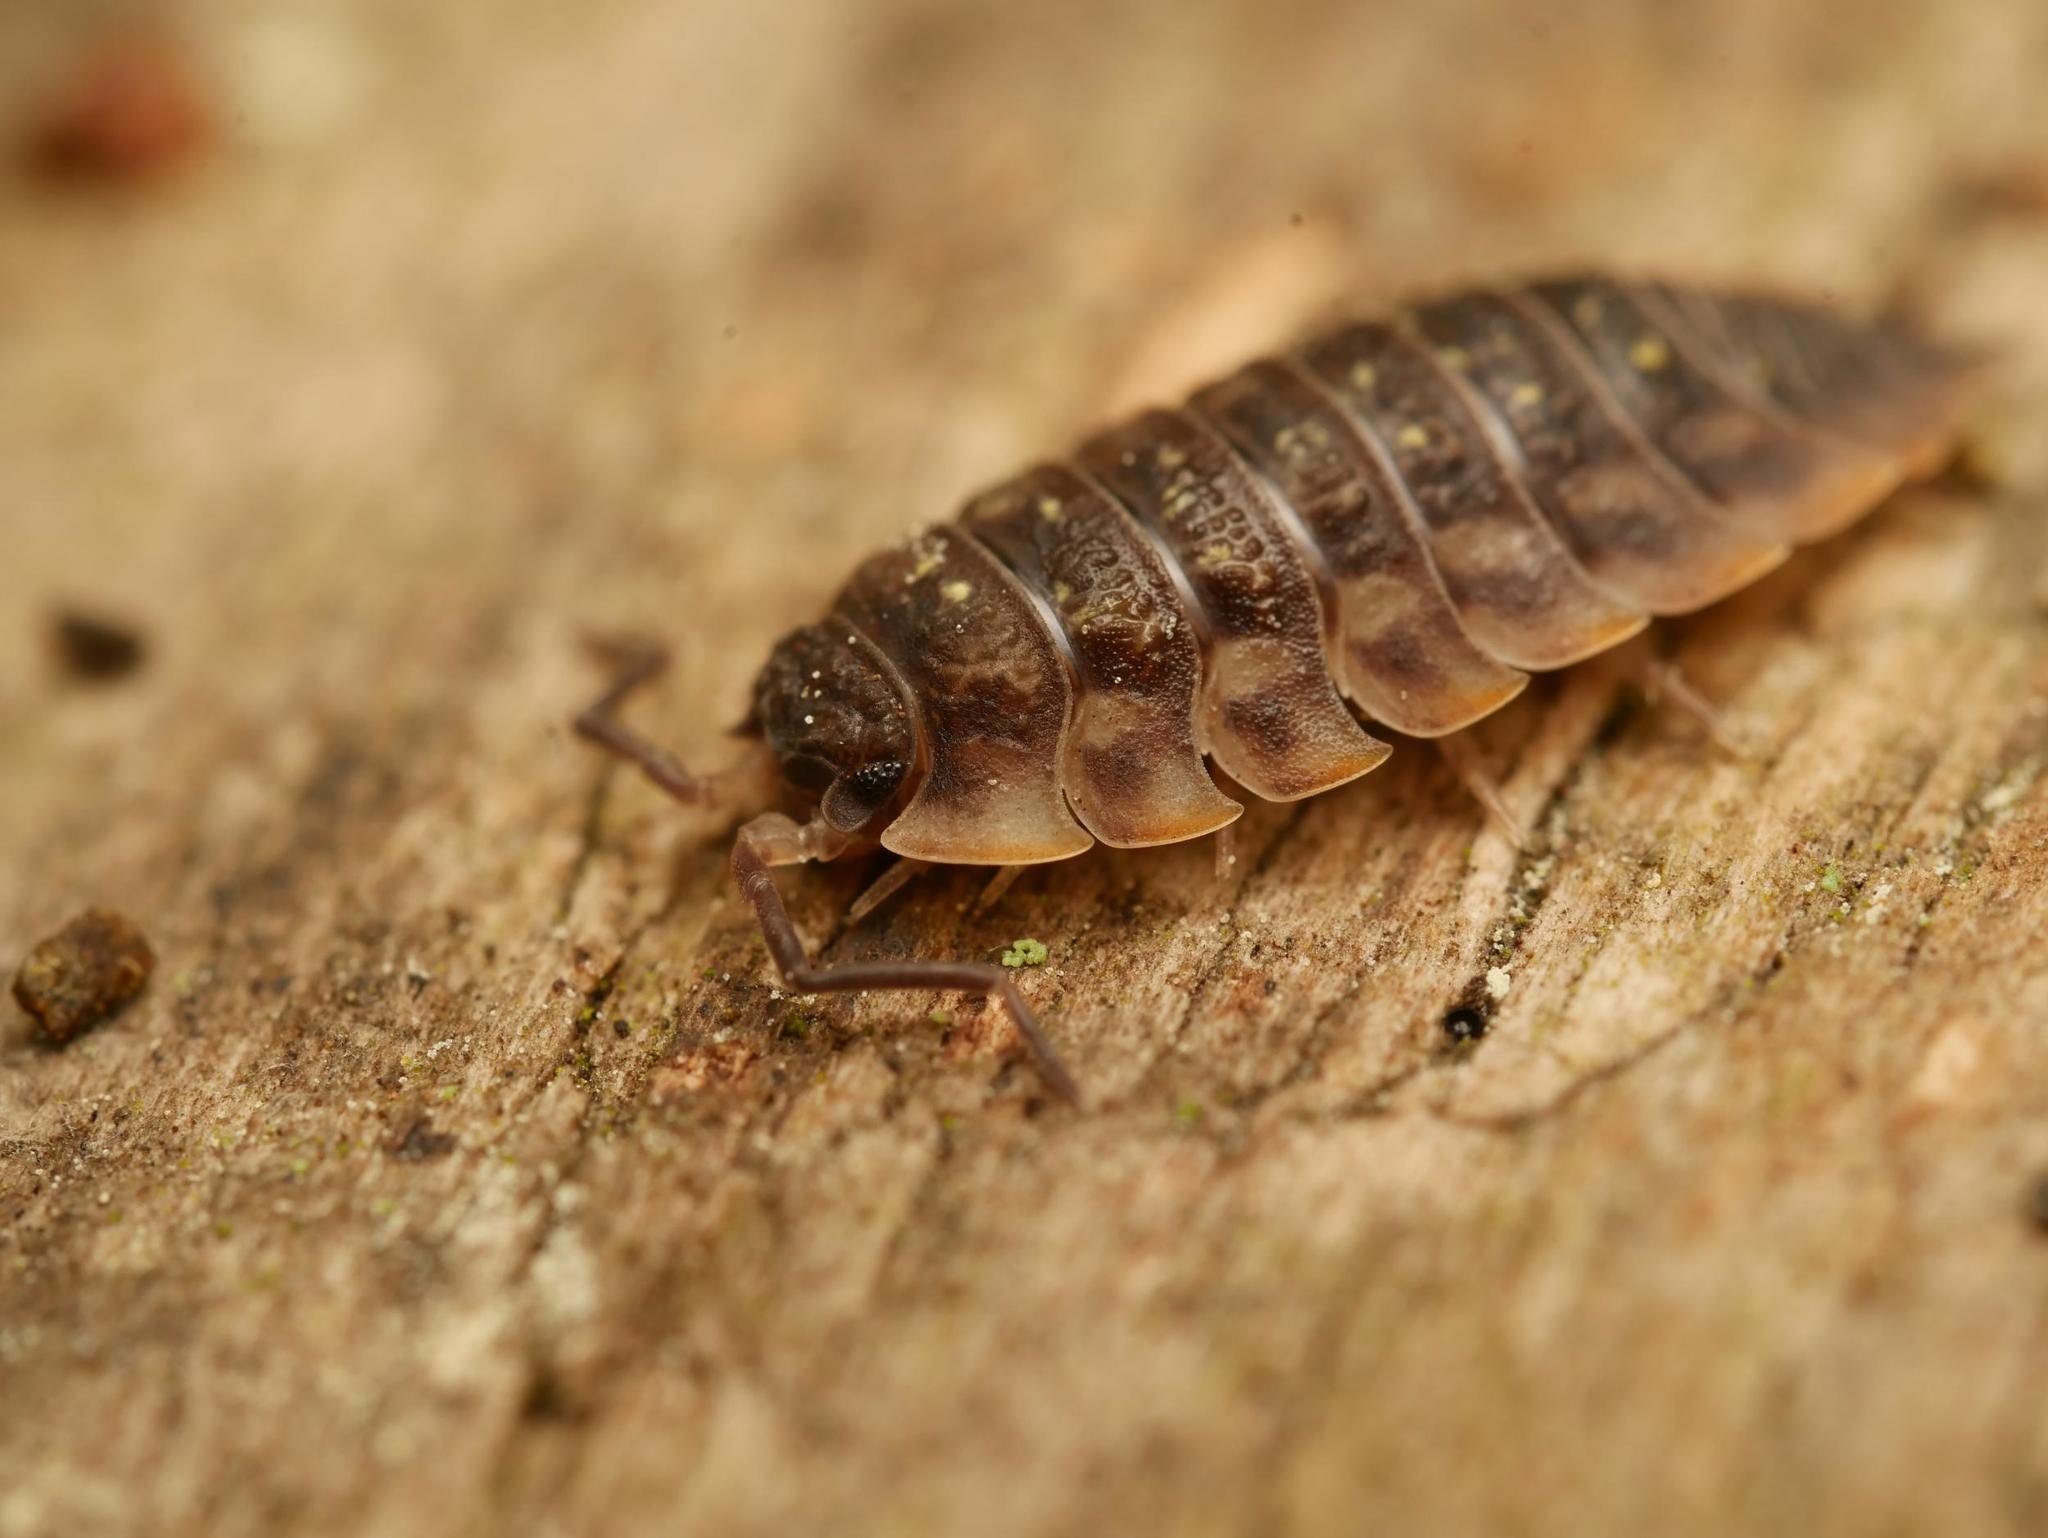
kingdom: Animalia
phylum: Arthropoda
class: Malacostraca
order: Isopoda
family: Oniscidae
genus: Oniscus
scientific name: Oniscus asellus
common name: Common shiny woodlouse
